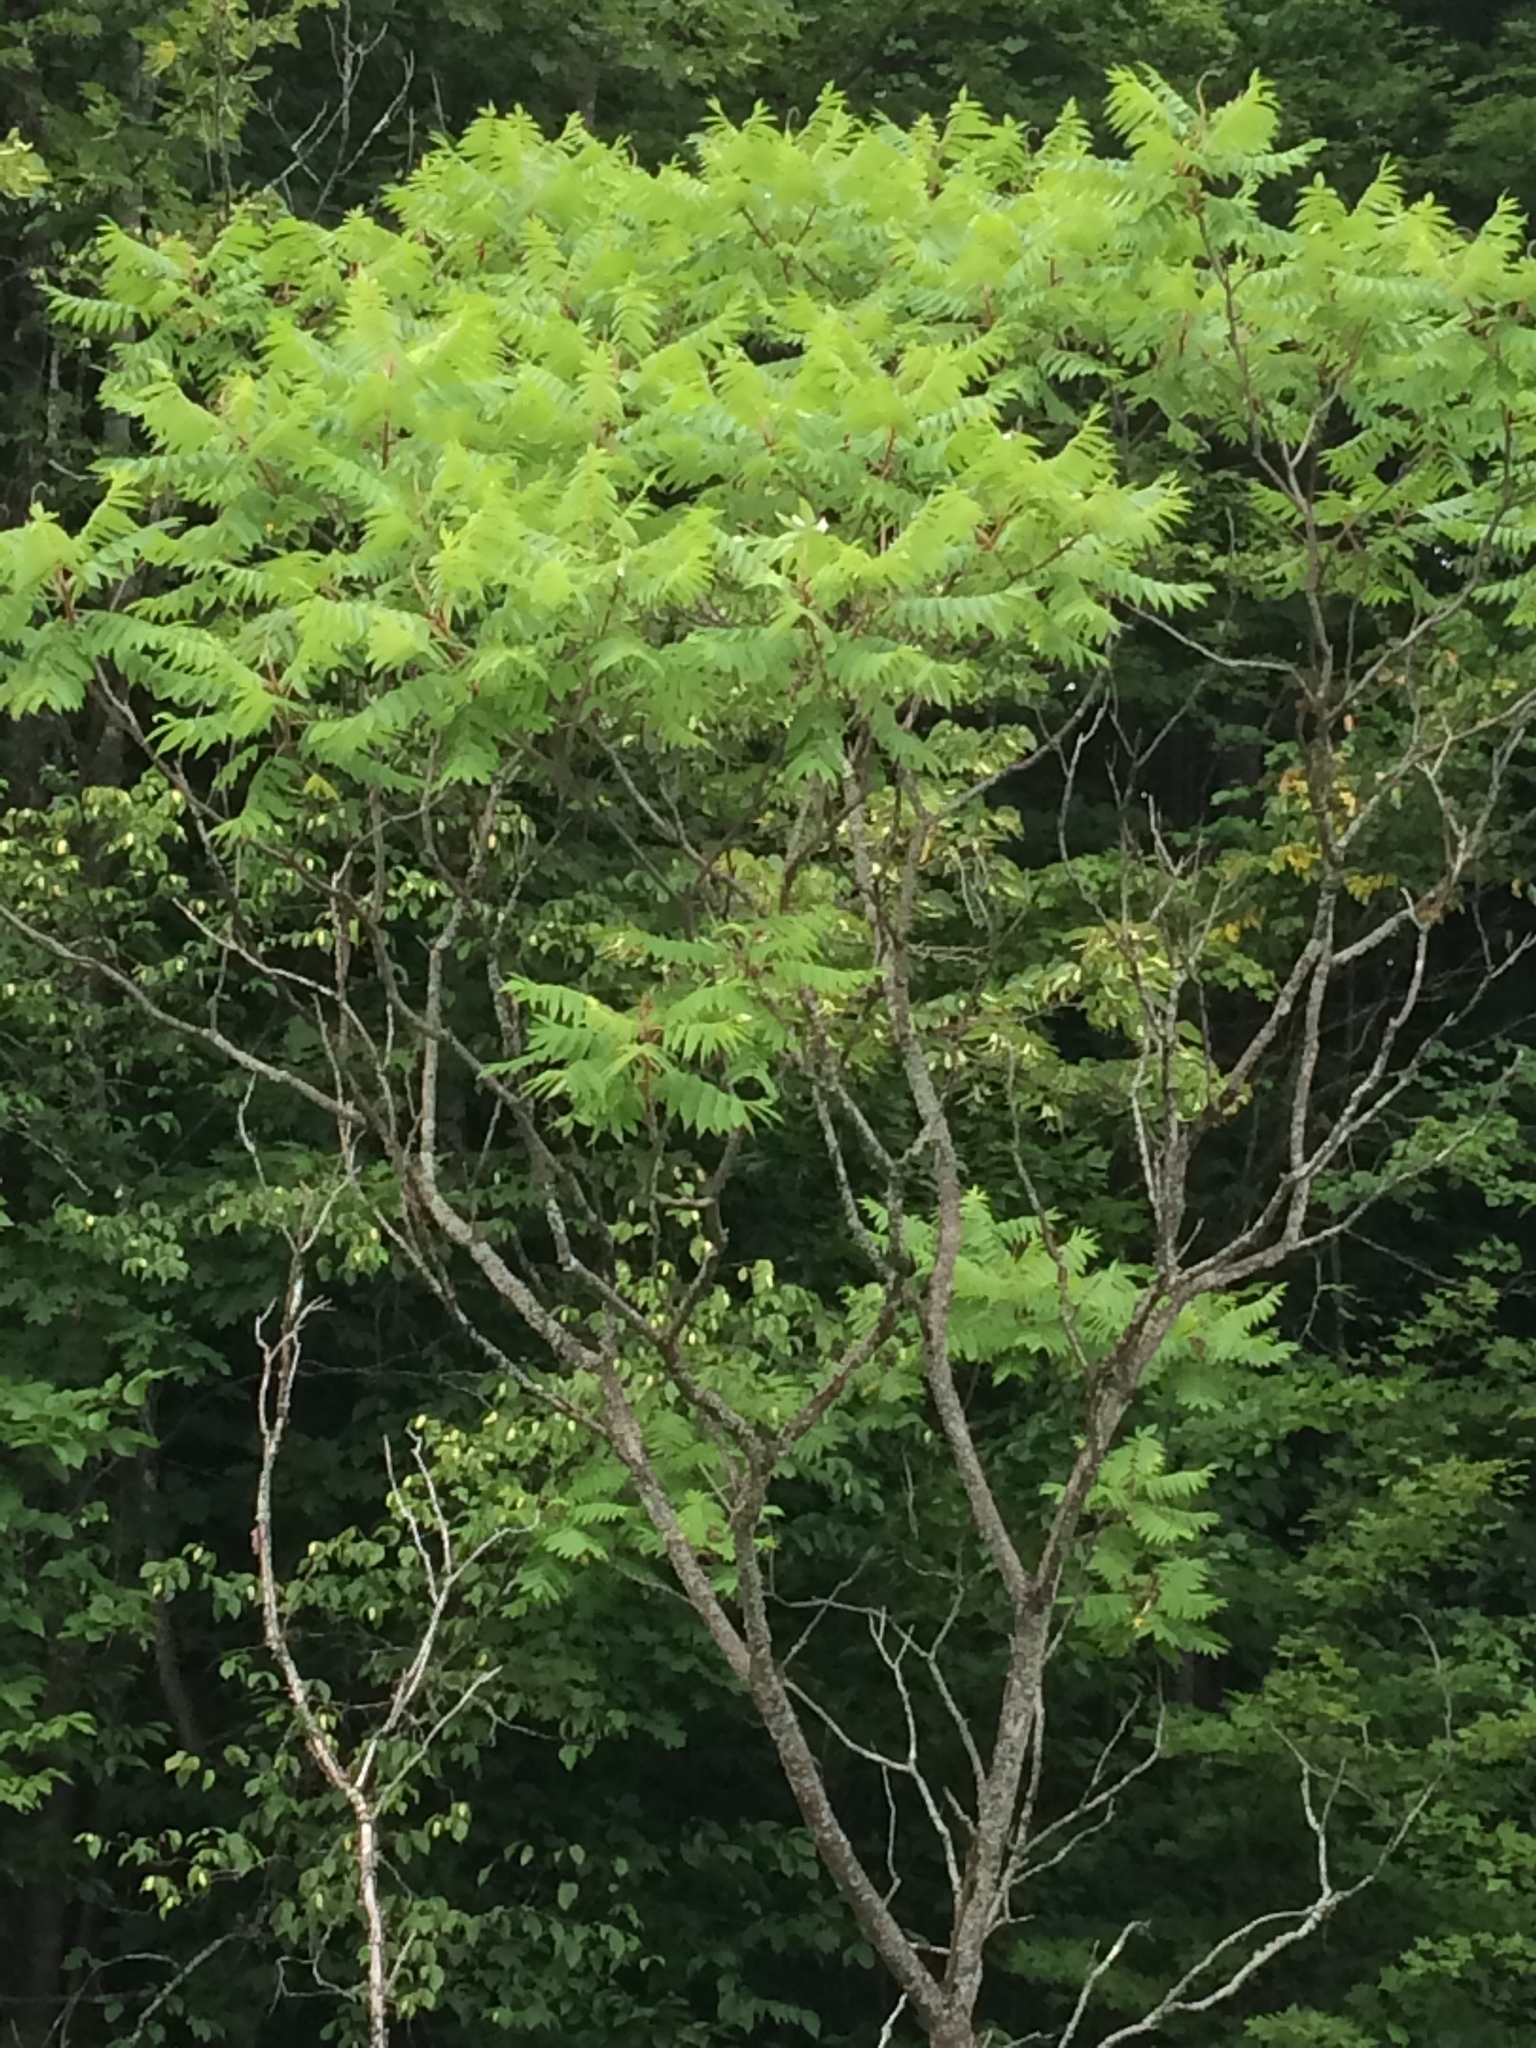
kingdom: Plantae
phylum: Tracheophyta
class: Magnoliopsida
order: Sapindales
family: Anacardiaceae
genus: Rhus
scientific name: Rhus typhina
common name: Staghorn sumac
